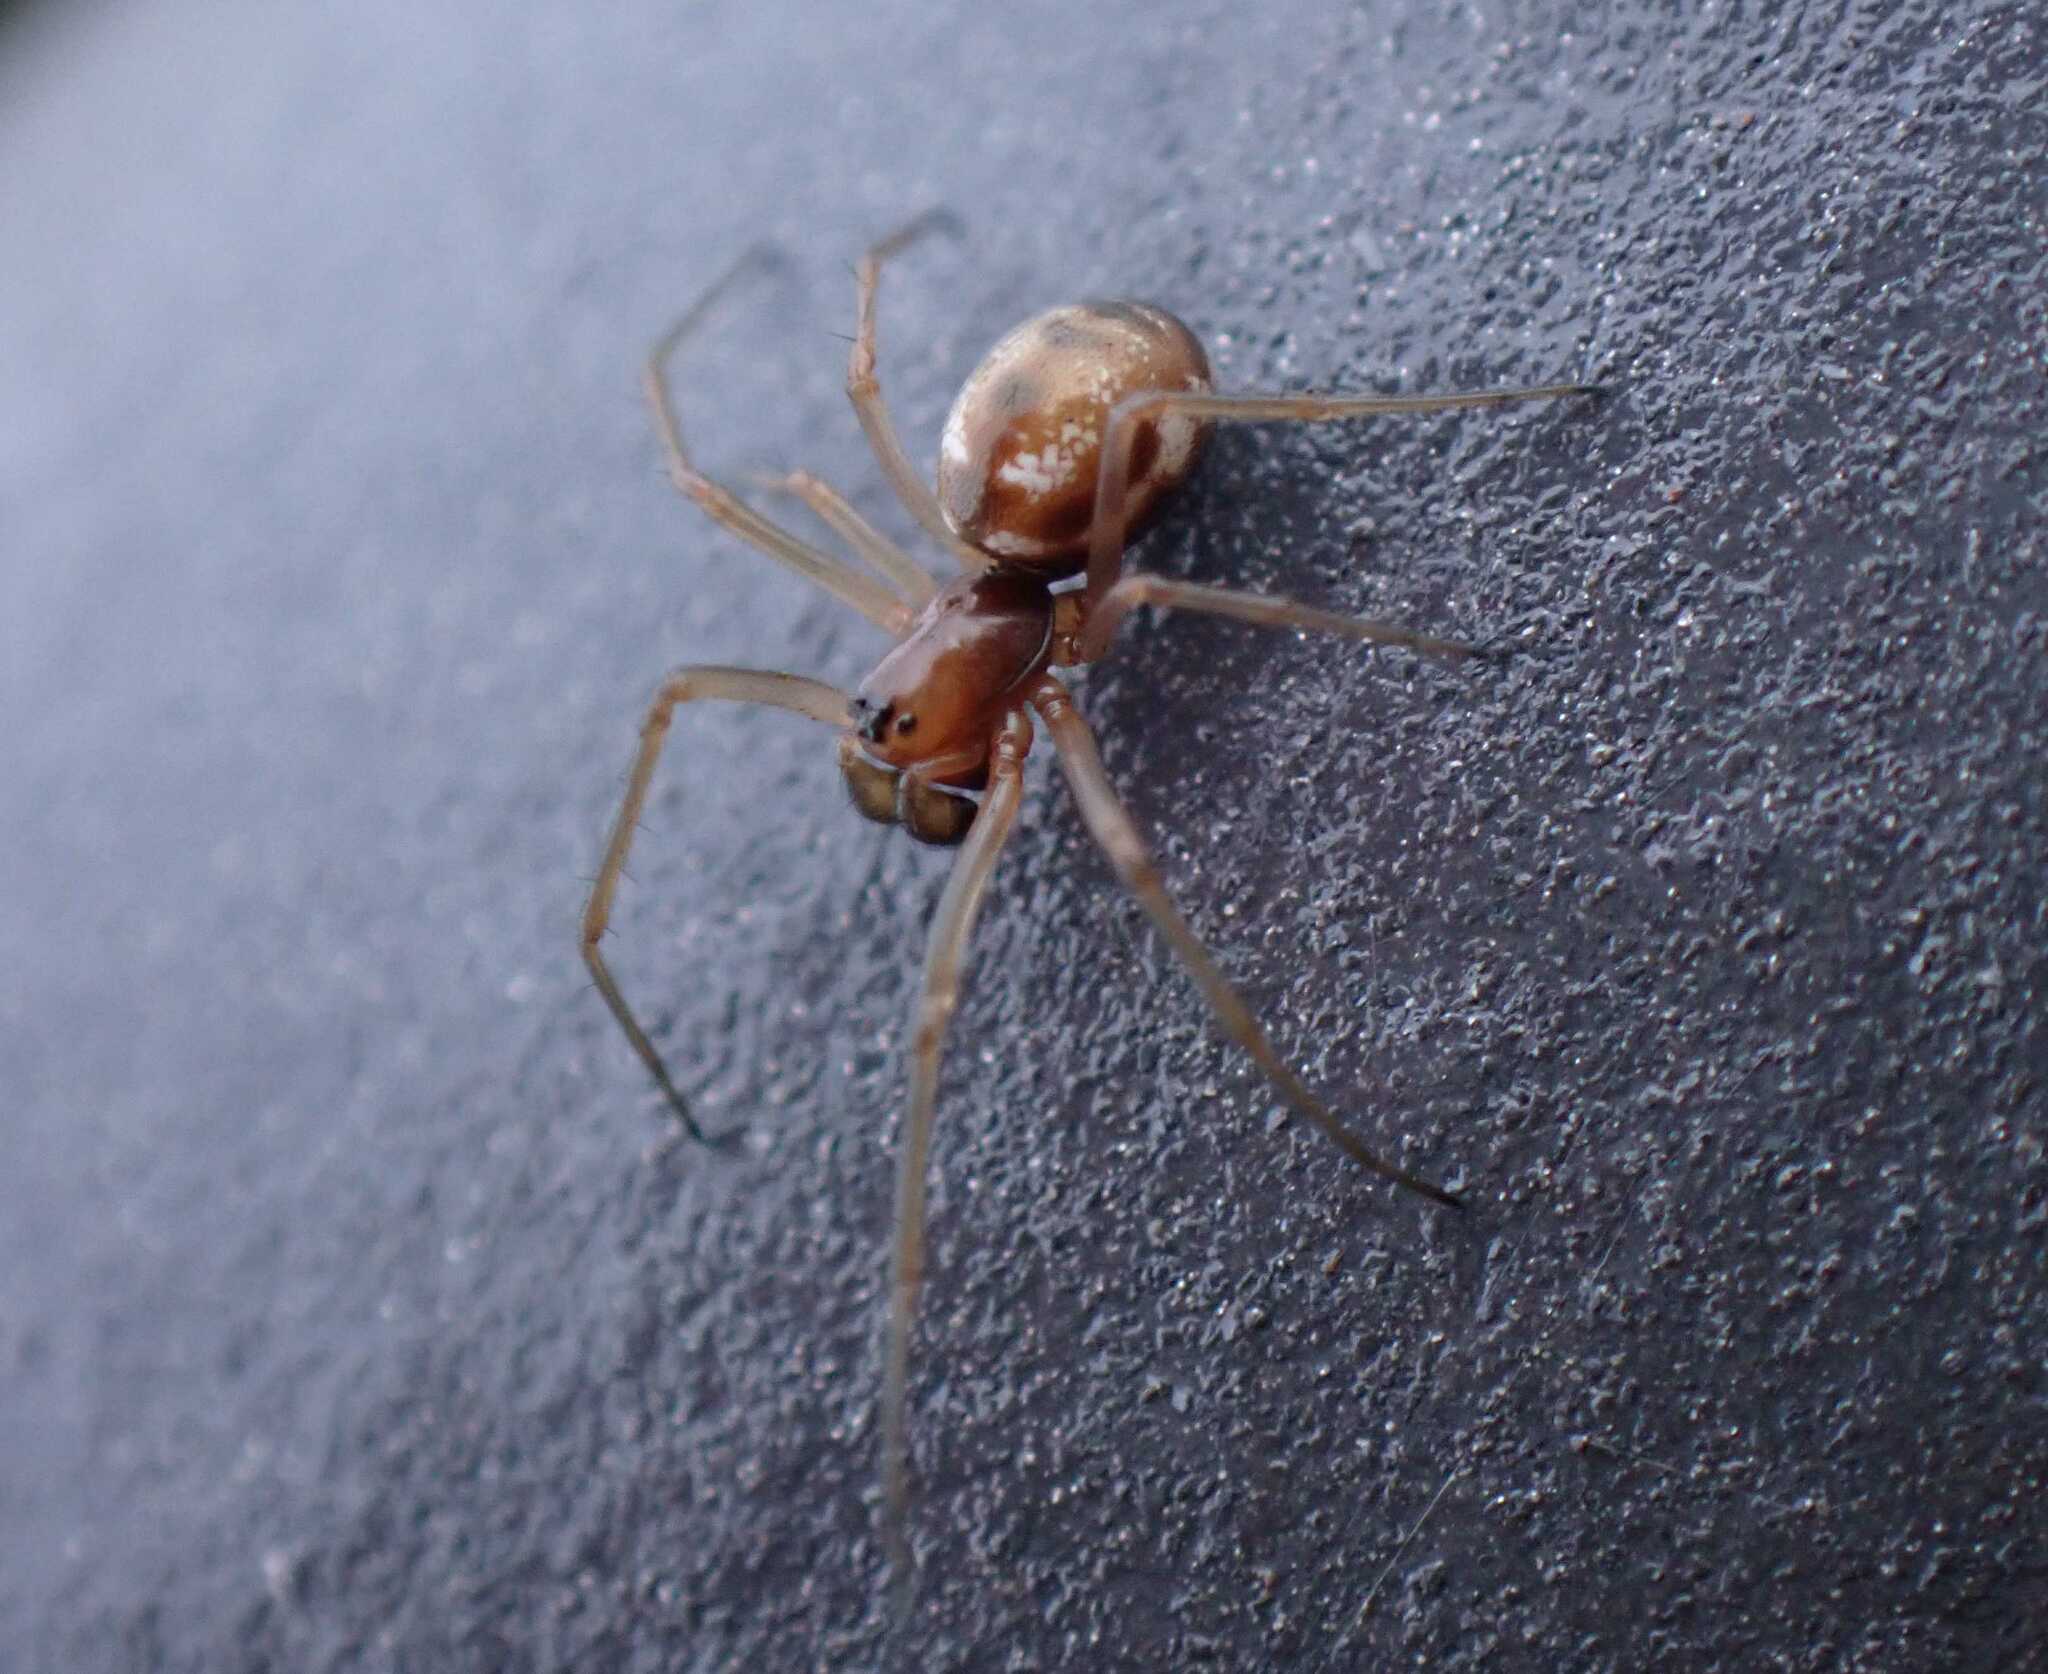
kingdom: Animalia
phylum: Arthropoda
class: Arachnida
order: Araneae
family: Linyphiidae
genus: Microlinyphia
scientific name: Microlinyphia pusilla
